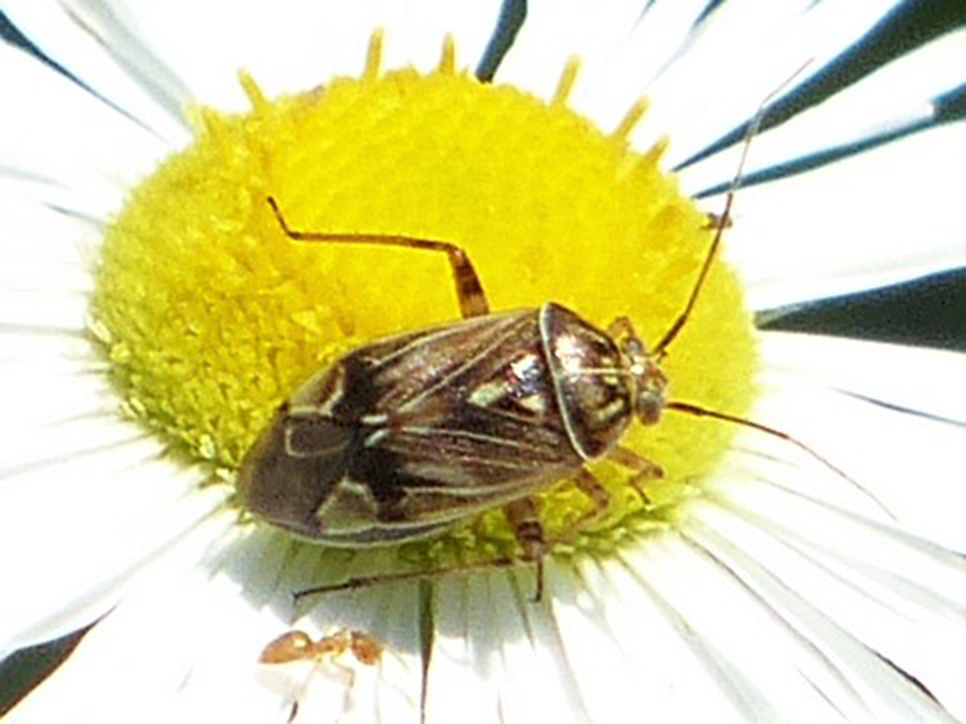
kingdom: Animalia
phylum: Arthropoda
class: Insecta
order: Hemiptera
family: Miridae
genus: Lygus
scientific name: Lygus lineolaris
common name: North american tarnished plant bug
